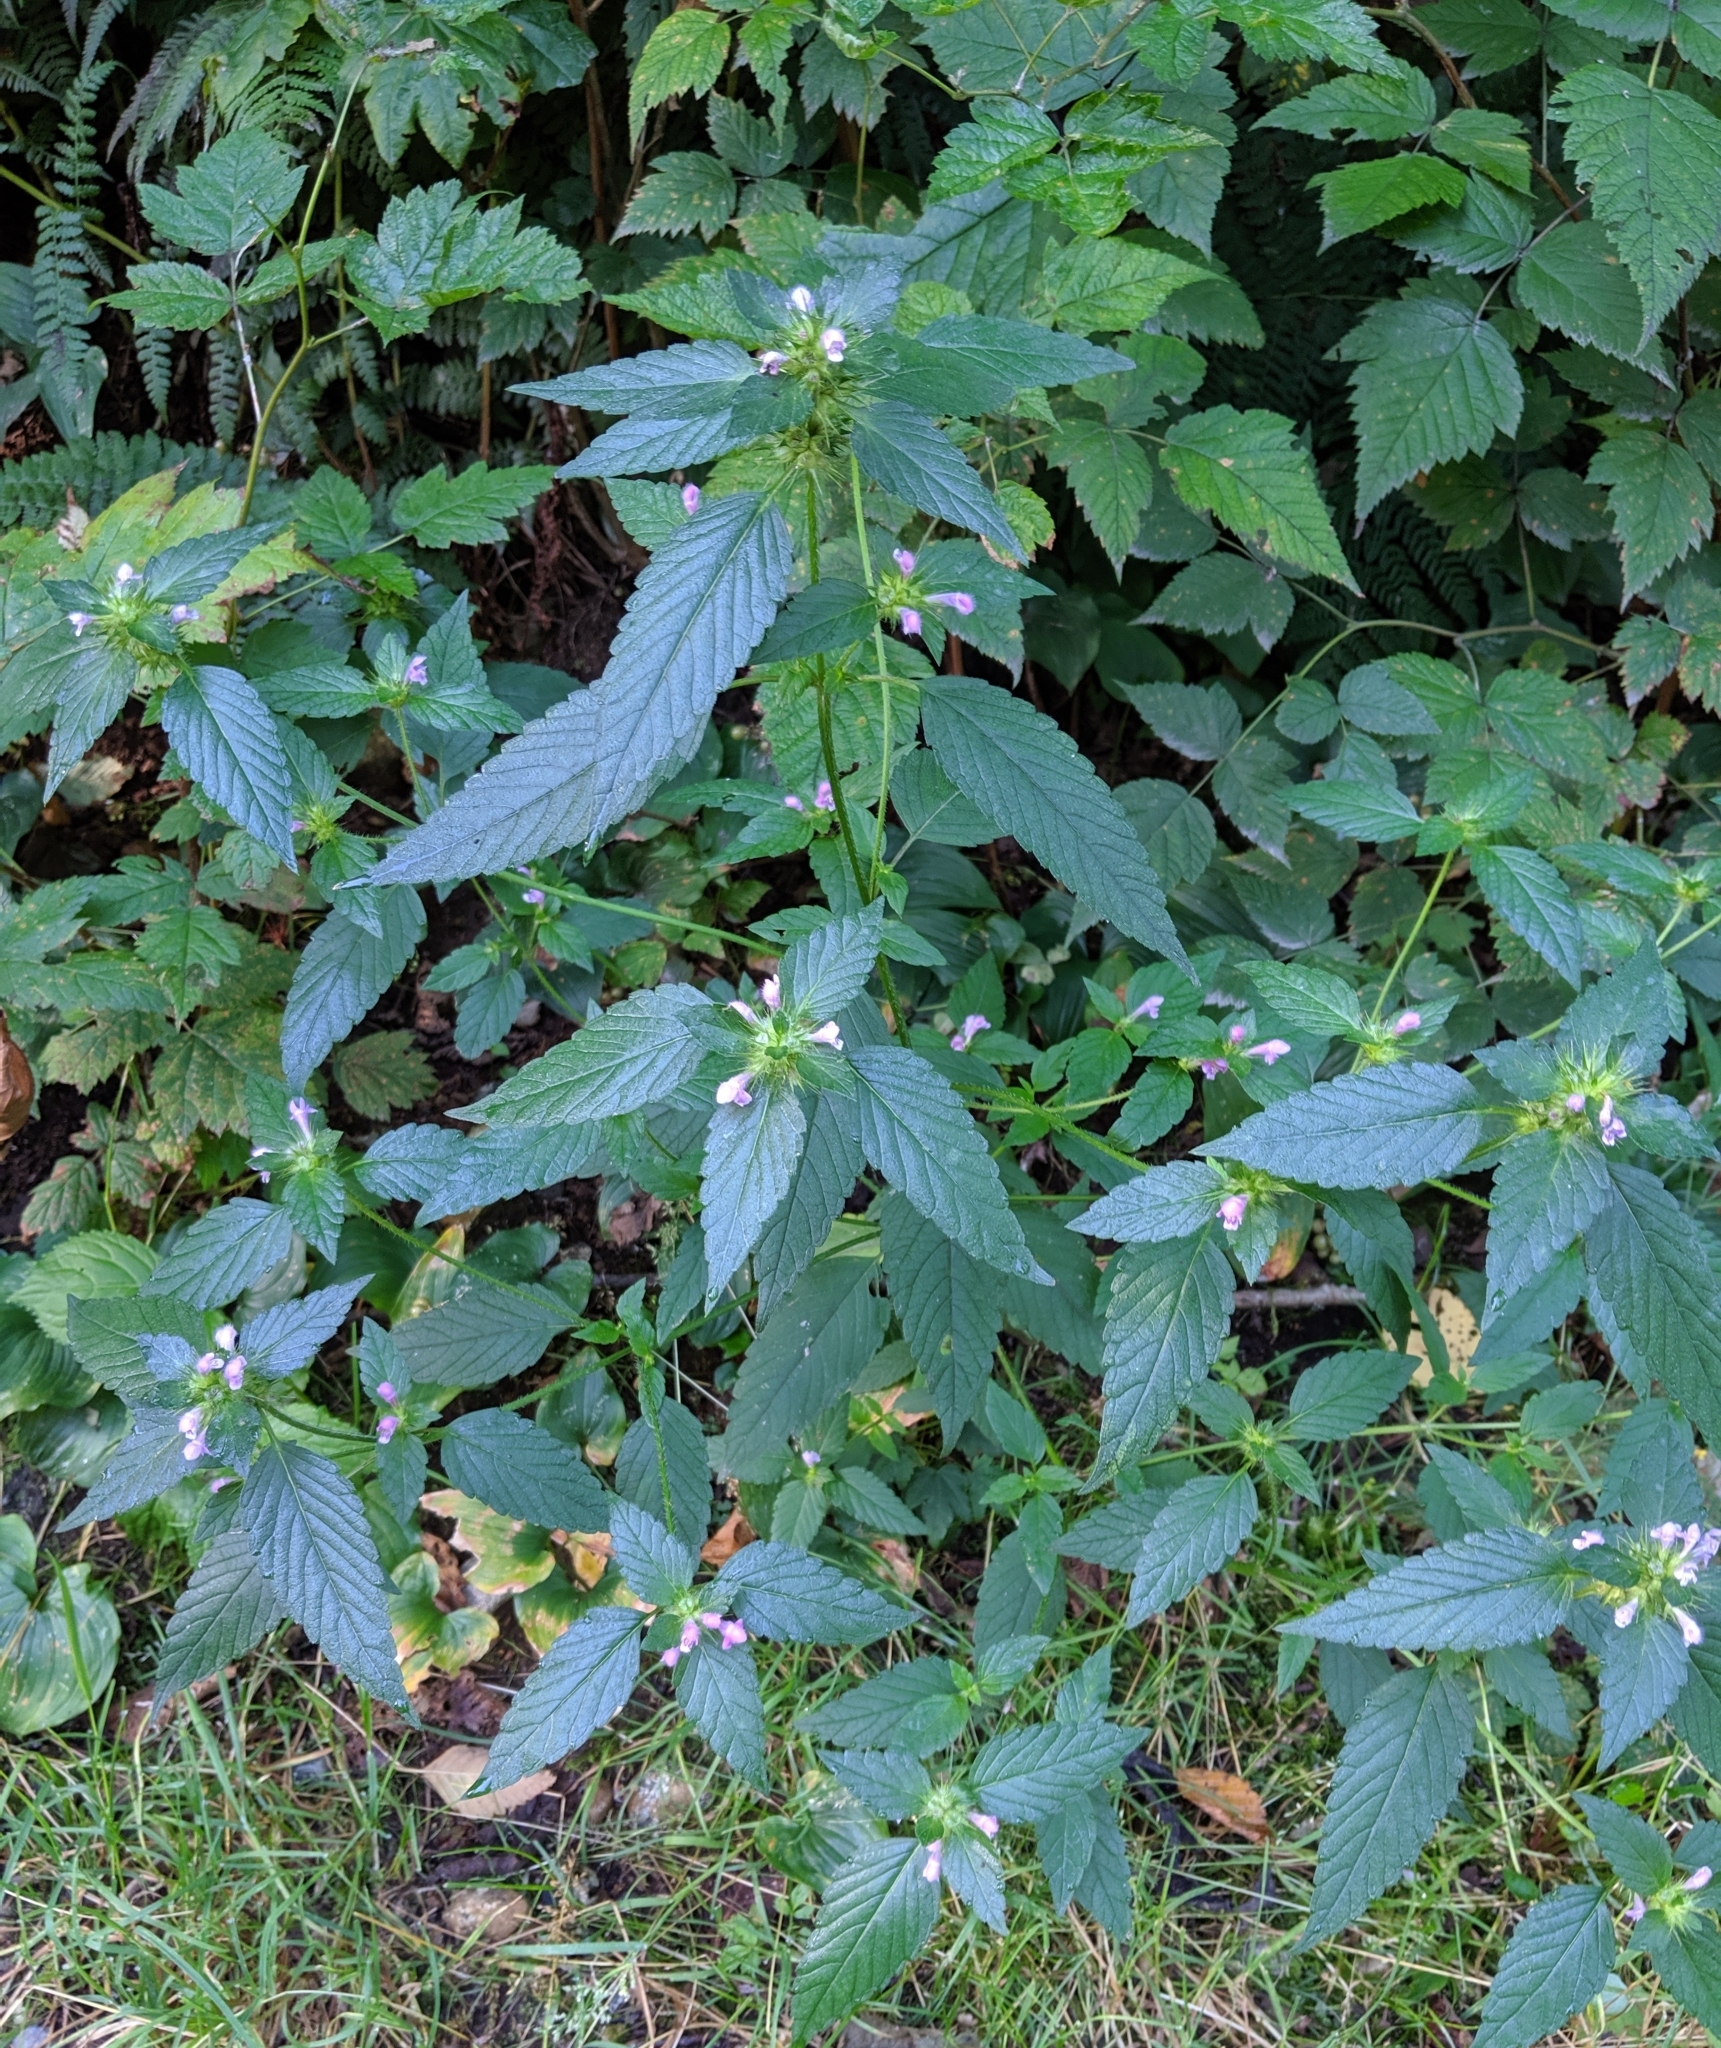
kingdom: Plantae
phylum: Tracheophyta
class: Magnoliopsida
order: Lamiales
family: Lamiaceae
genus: Galeopsis
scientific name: Galeopsis tetrahit
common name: Common hemp-nettle
